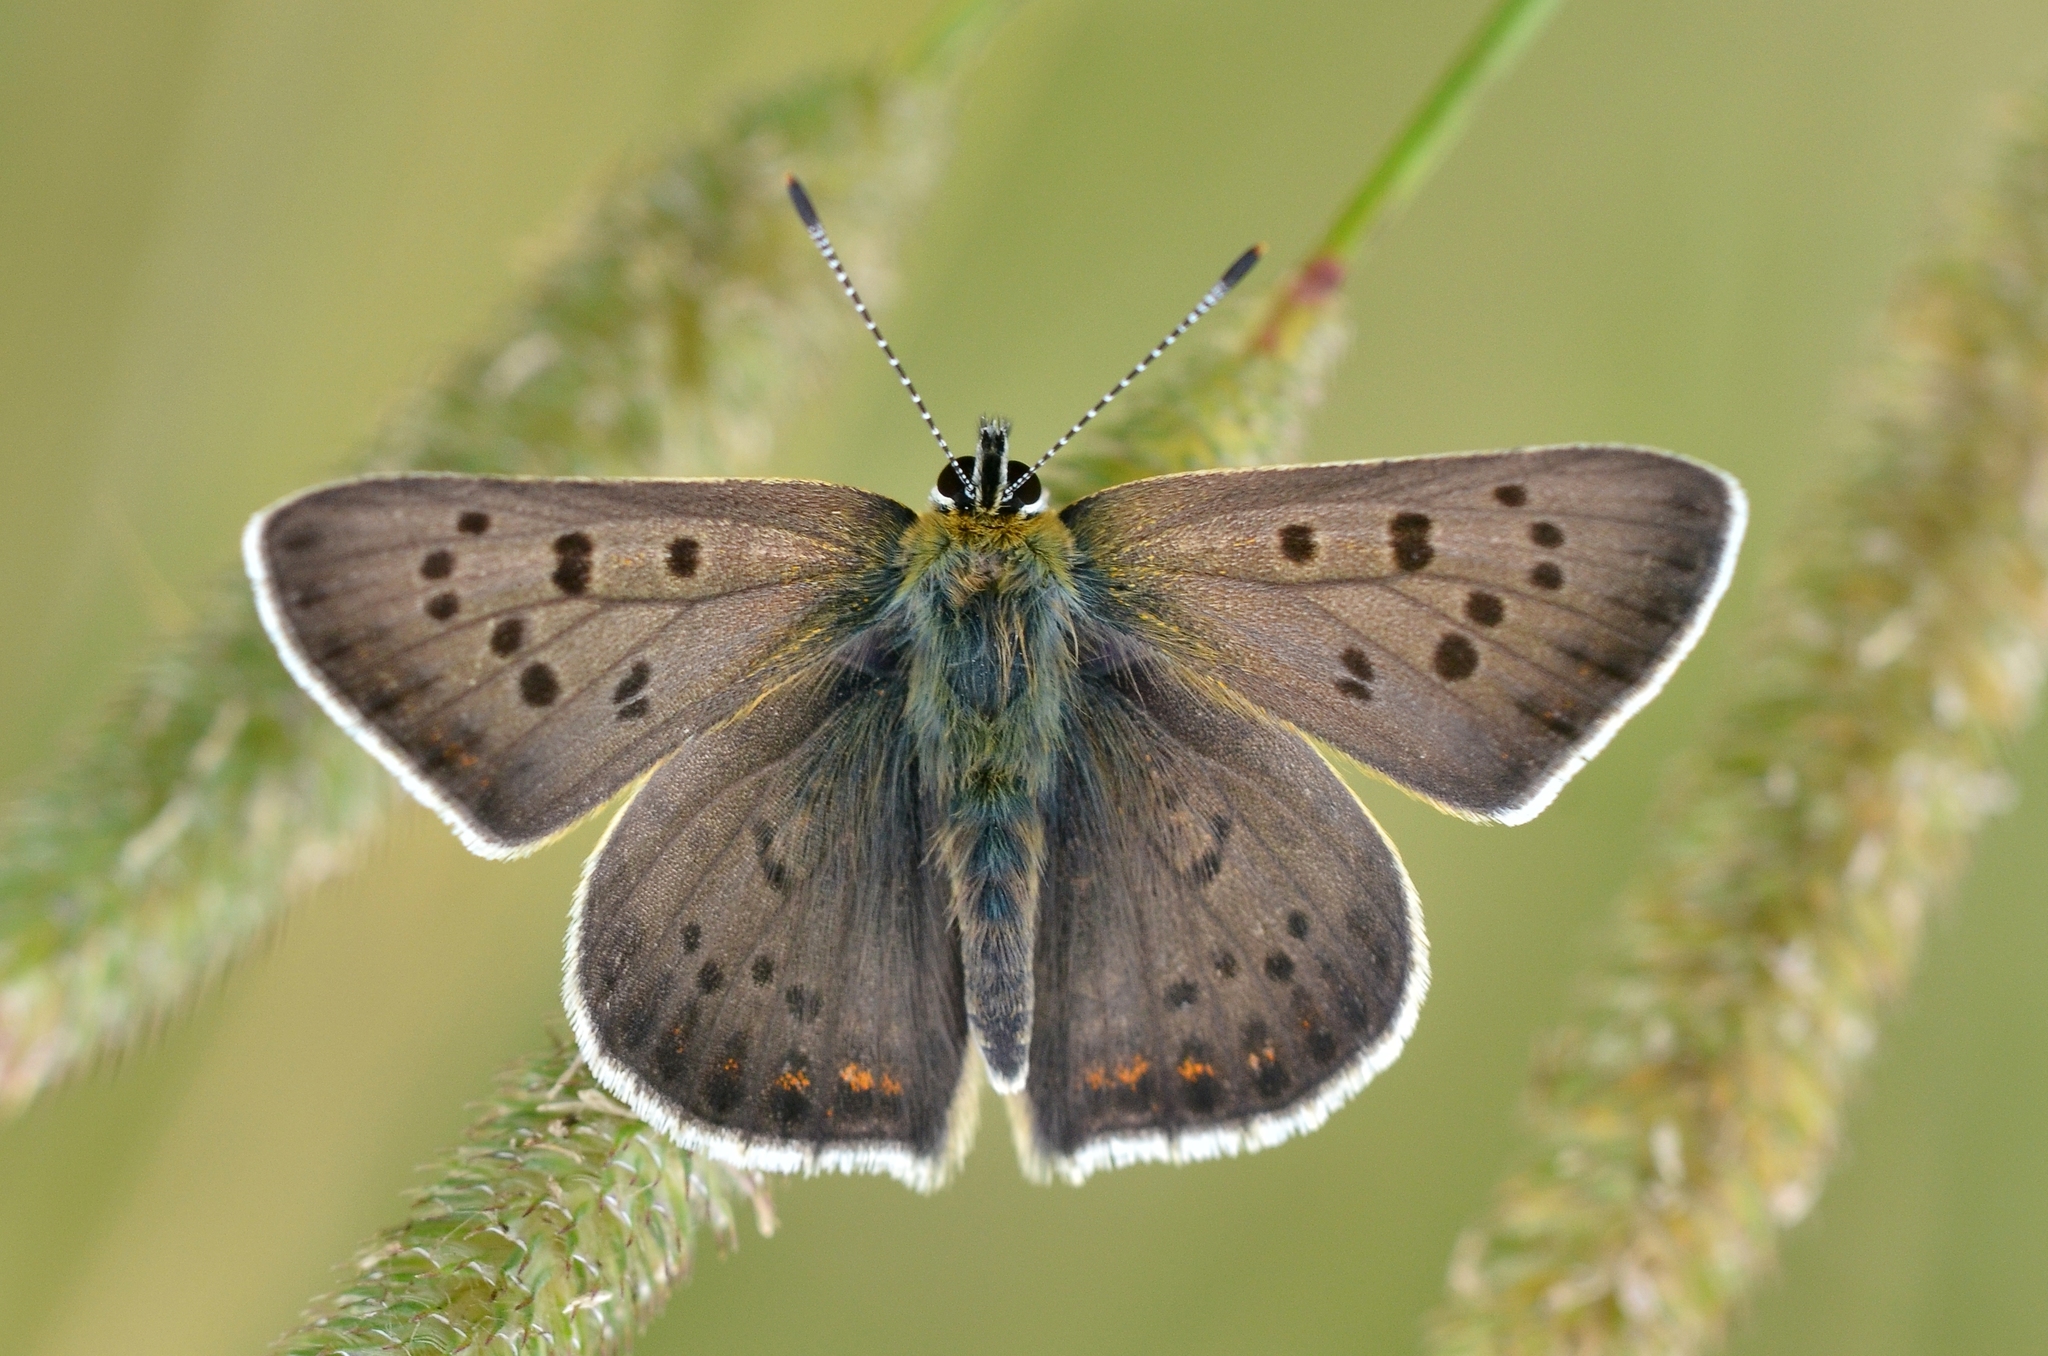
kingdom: Animalia
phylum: Arthropoda
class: Insecta
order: Lepidoptera
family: Lycaenidae
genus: Loweia
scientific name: Loweia tityrus
